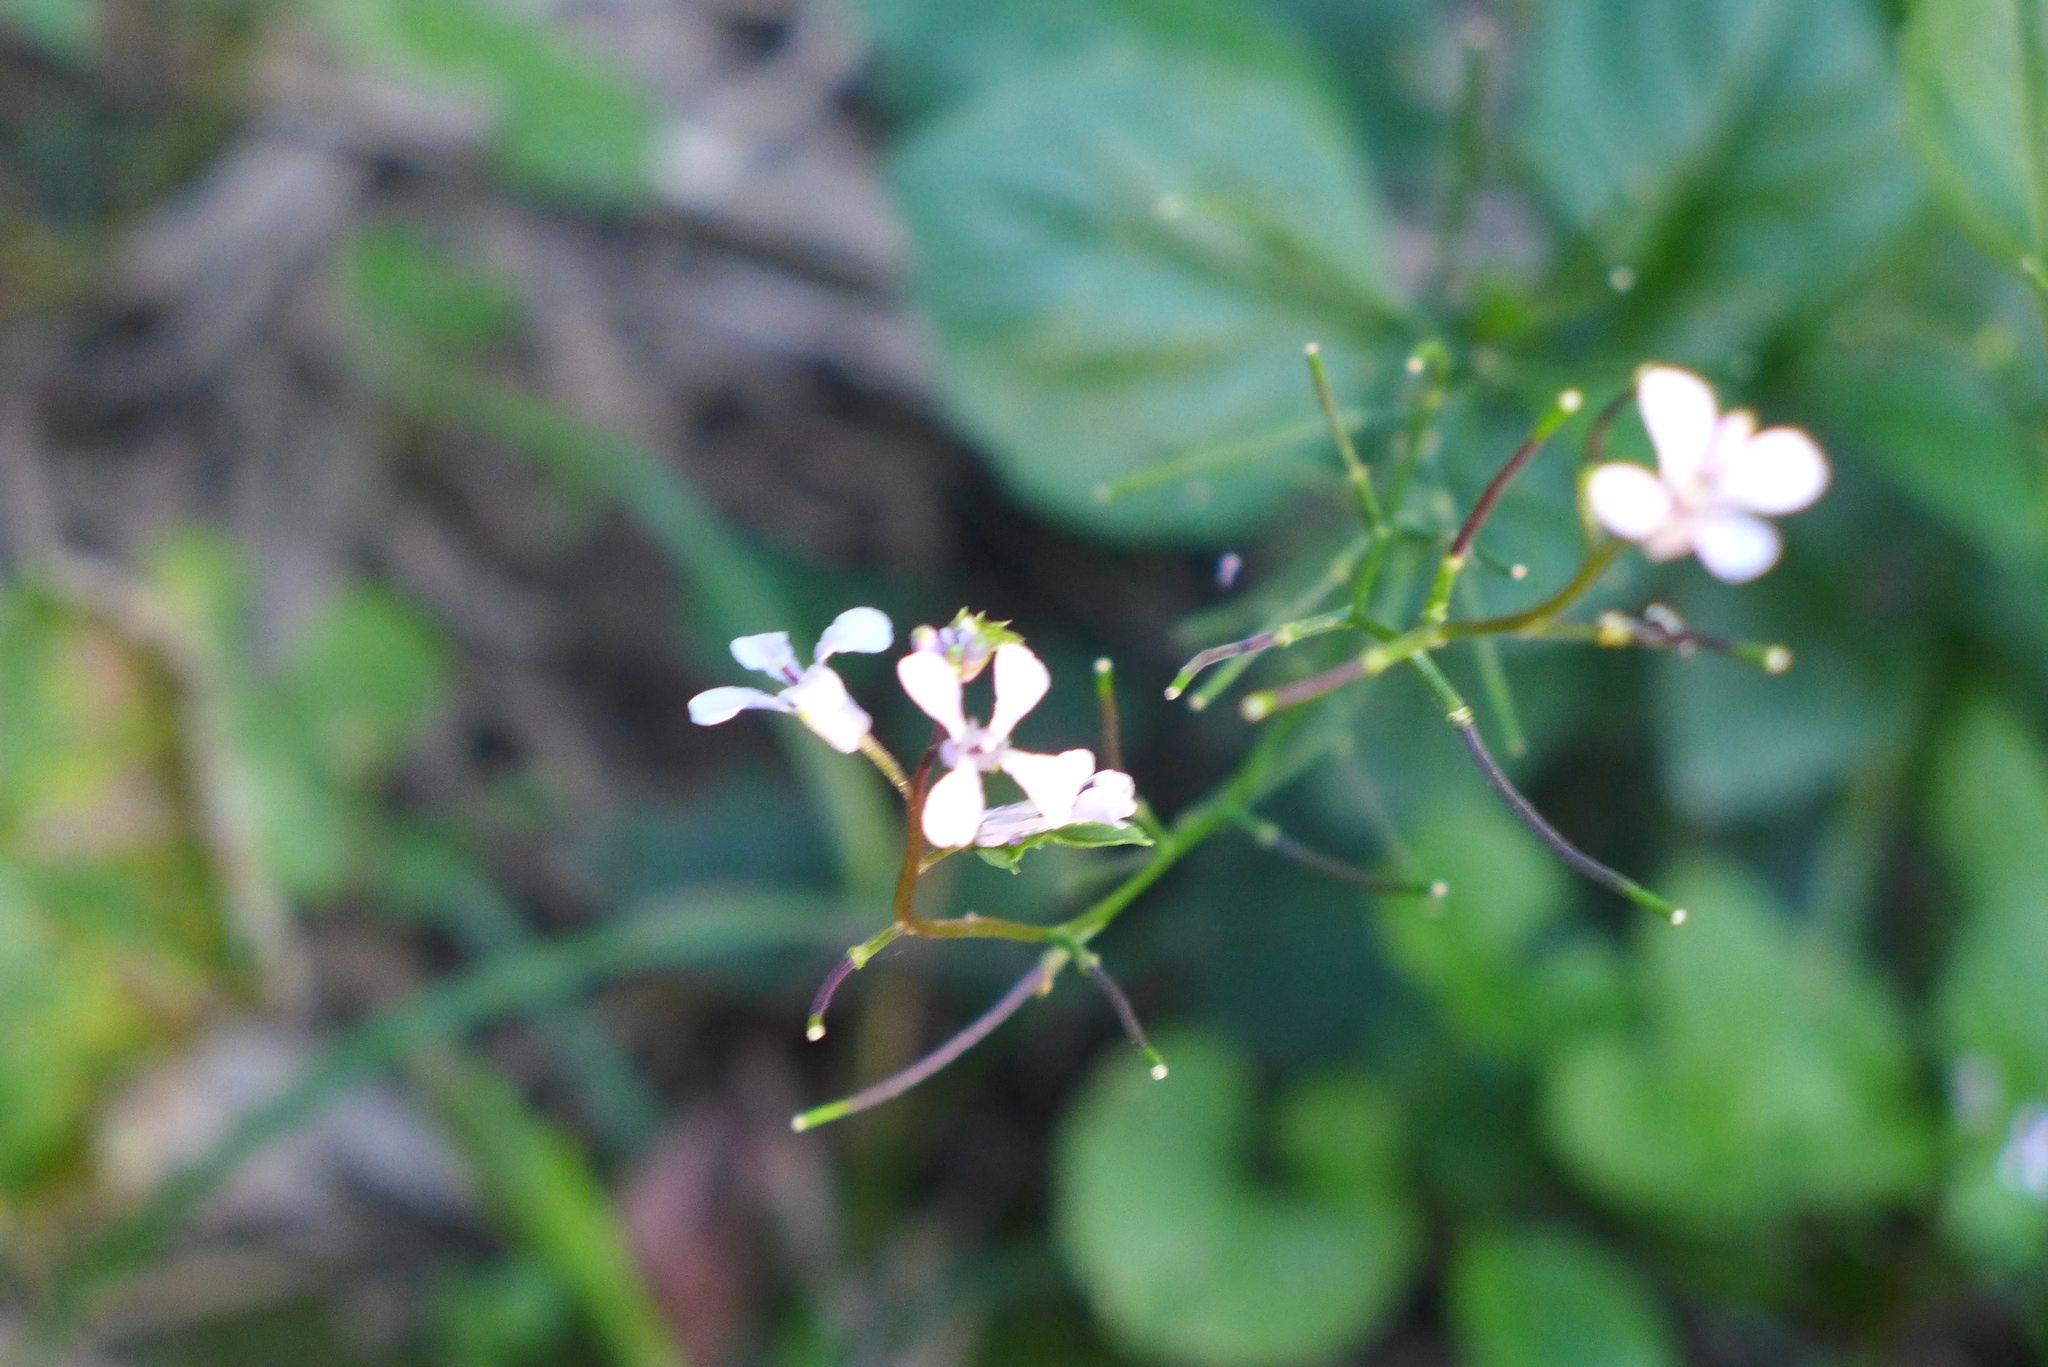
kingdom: Plantae
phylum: Tracheophyta
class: Magnoliopsida
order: Brassicales
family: Brassicaceae
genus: Iodanthus
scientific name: Iodanthus pinnatifidus
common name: Violet rocket
